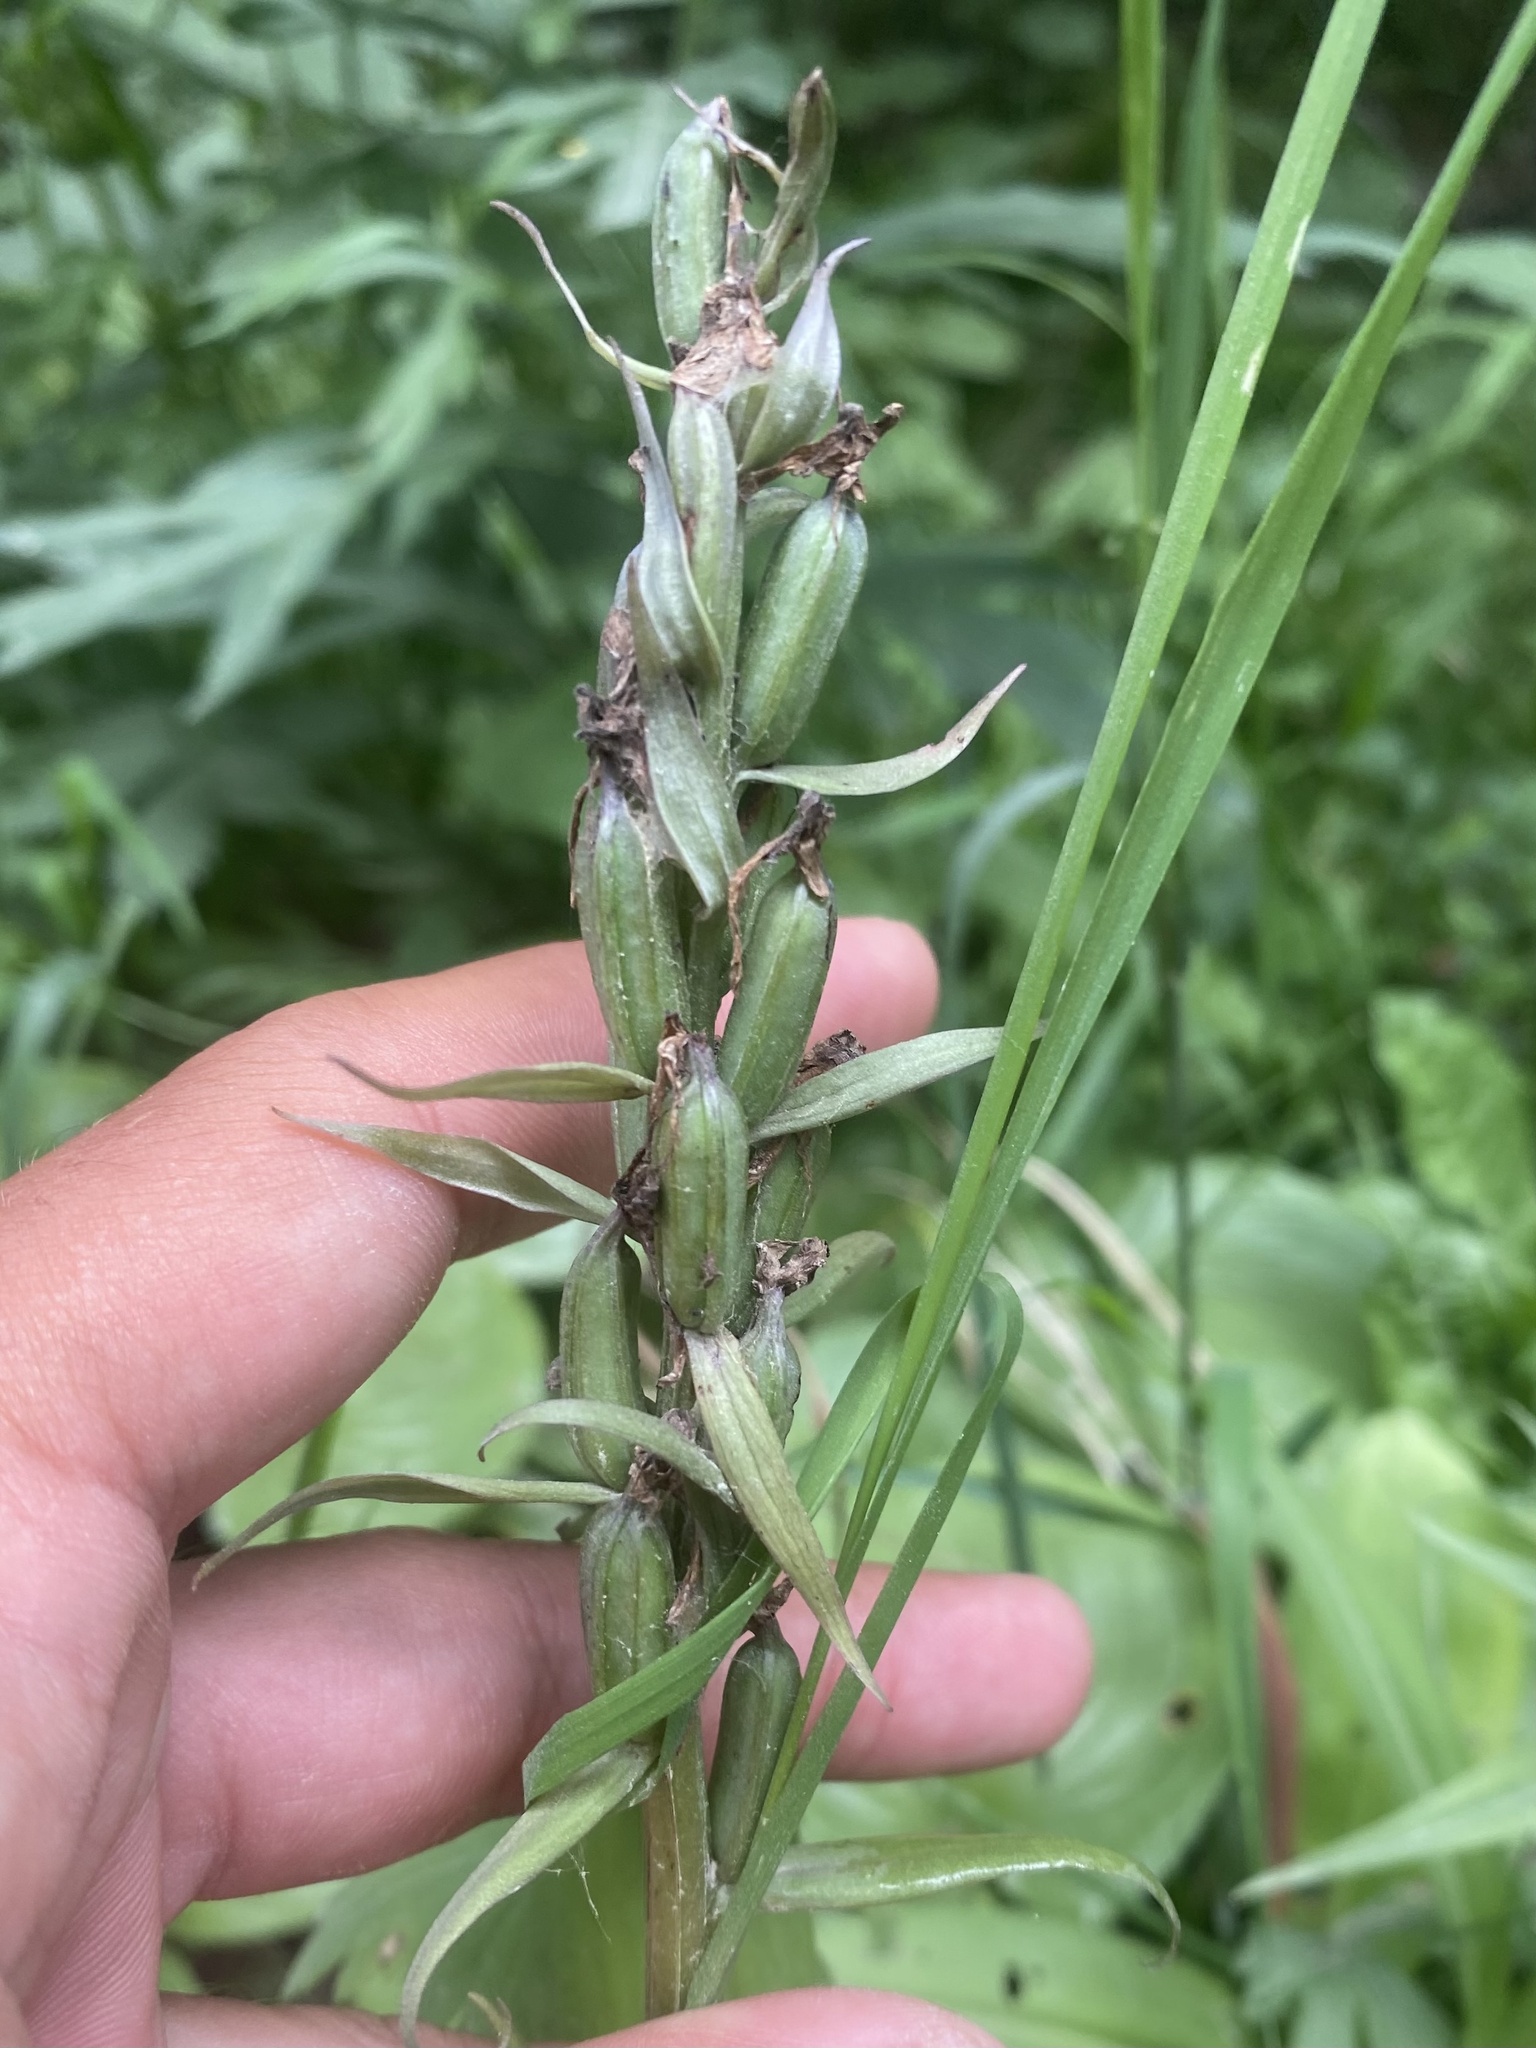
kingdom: Plantae
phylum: Tracheophyta
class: Liliopsida
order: Asparagales
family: Orchidaceae
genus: Dactylorhiza
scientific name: Dactylorhiza aristata
